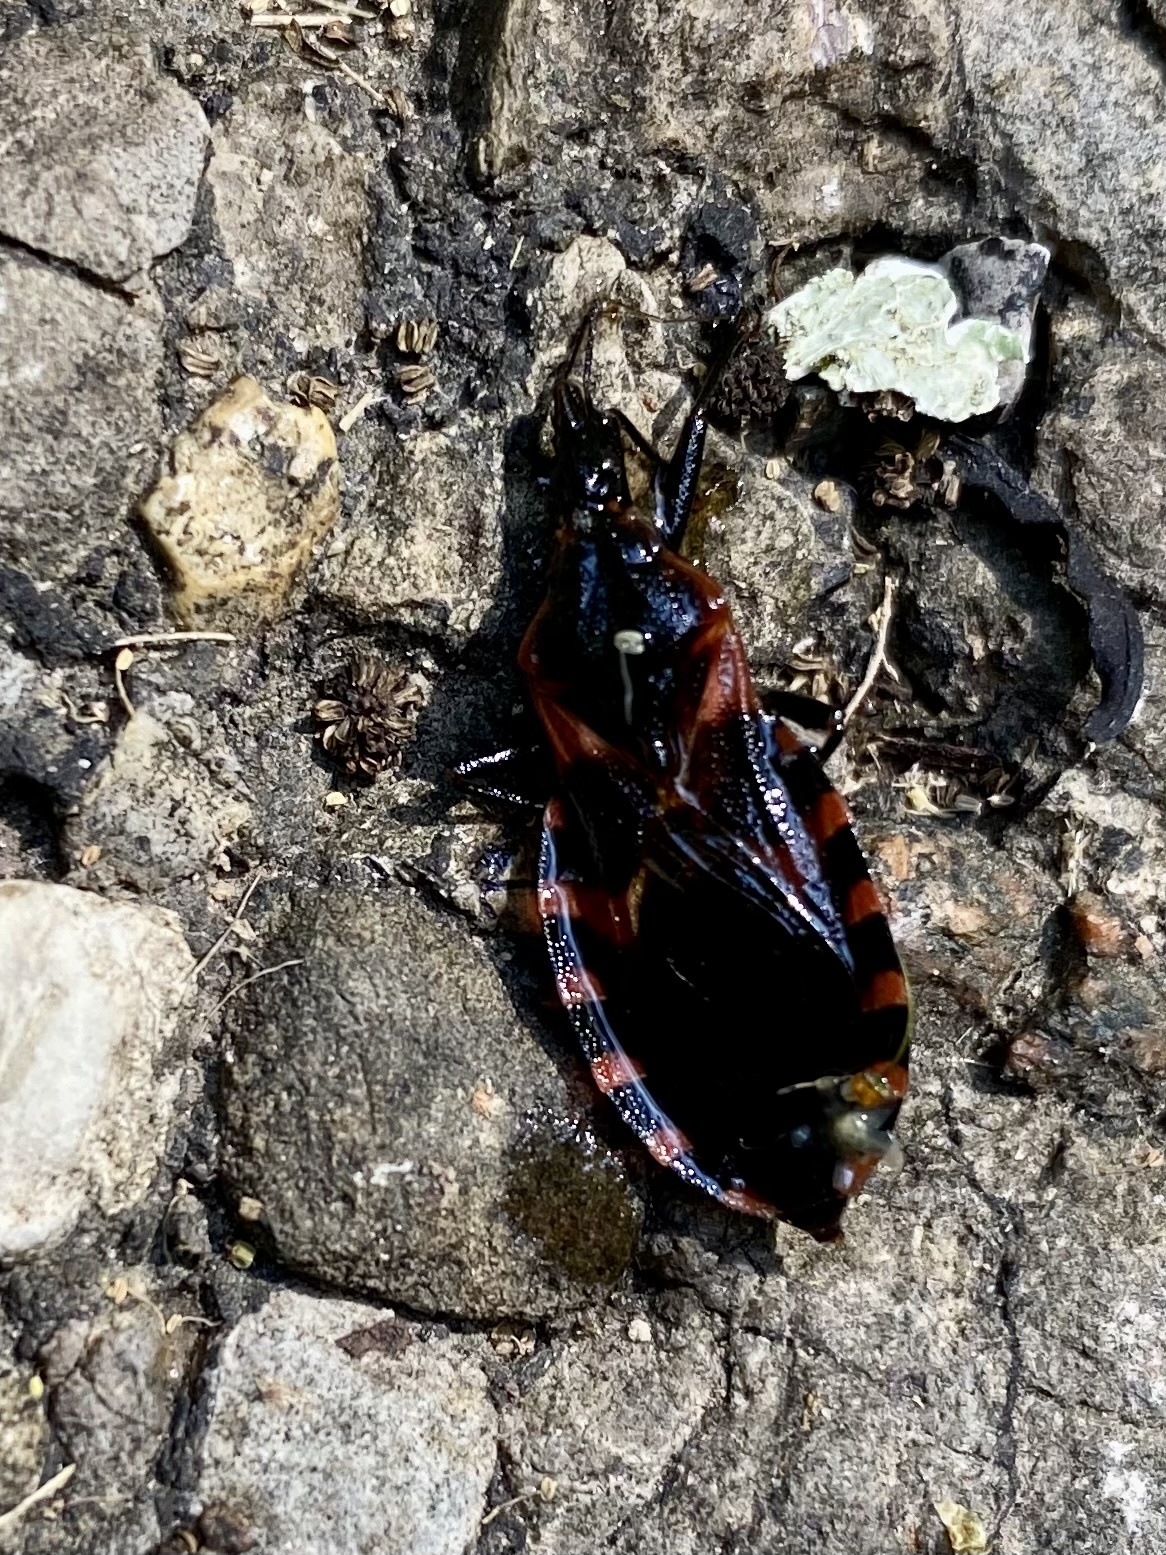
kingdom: Animalia
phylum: Arthropoda
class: Insecta
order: Hemiptera
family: Reduviidae
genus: Triatoma
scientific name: Triatoma sanguisuga
